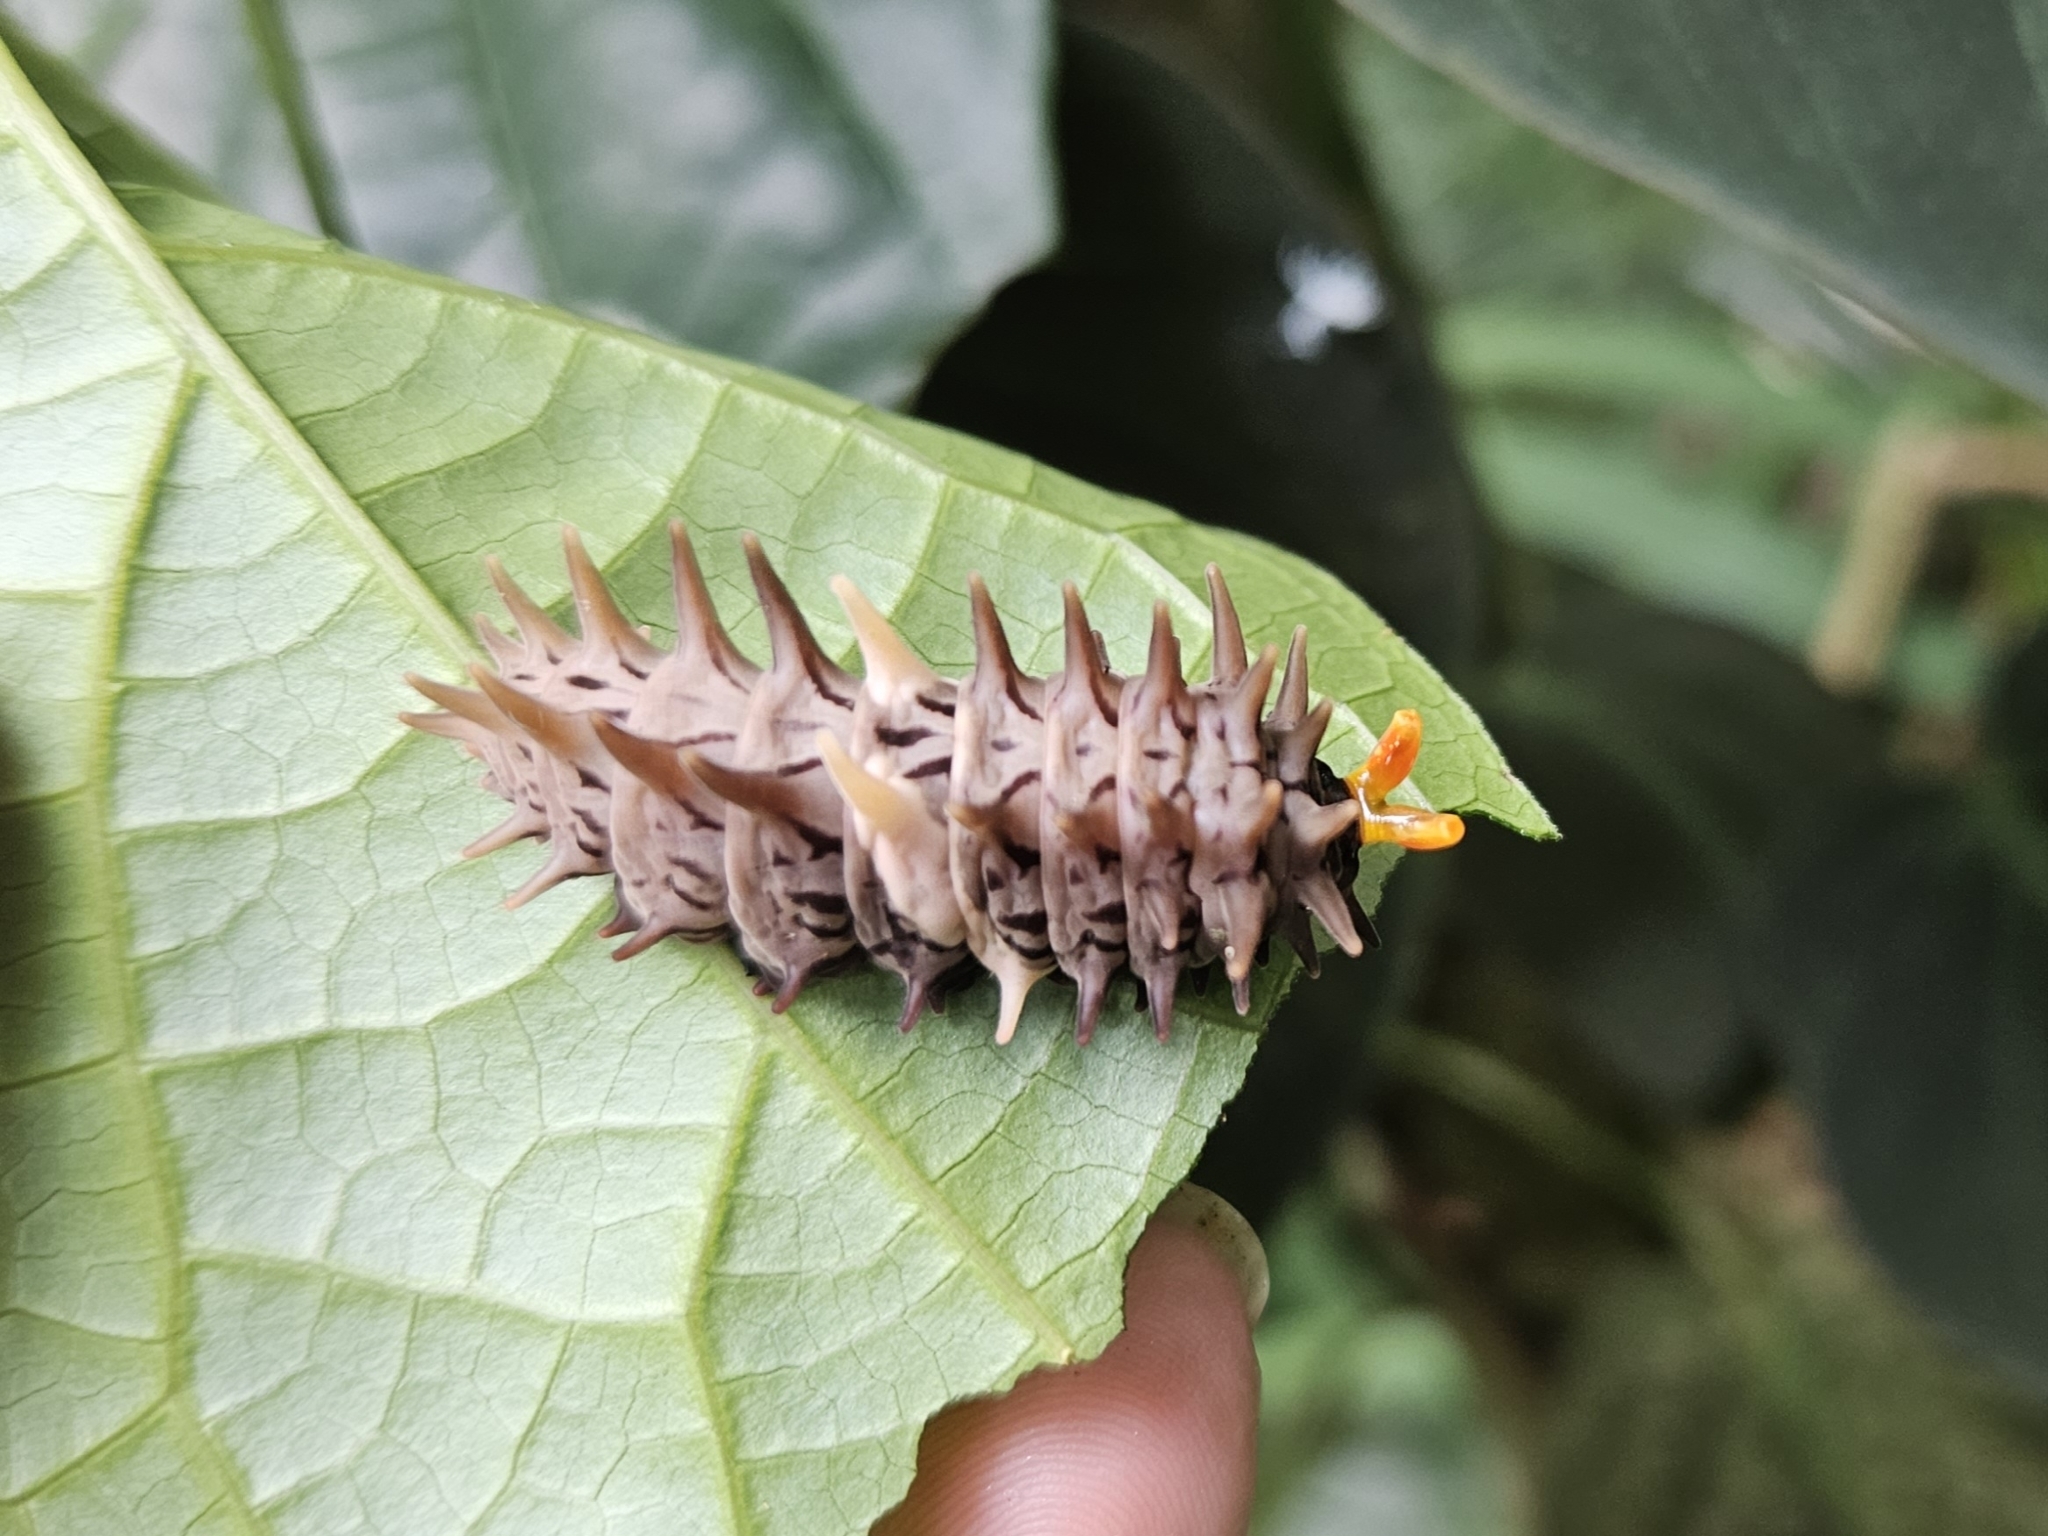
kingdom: Animalia
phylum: Arthropoda
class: Insecta
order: Lepidoptera
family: Papilionidae
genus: Troides
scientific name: Troides helena
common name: Common birdwing
